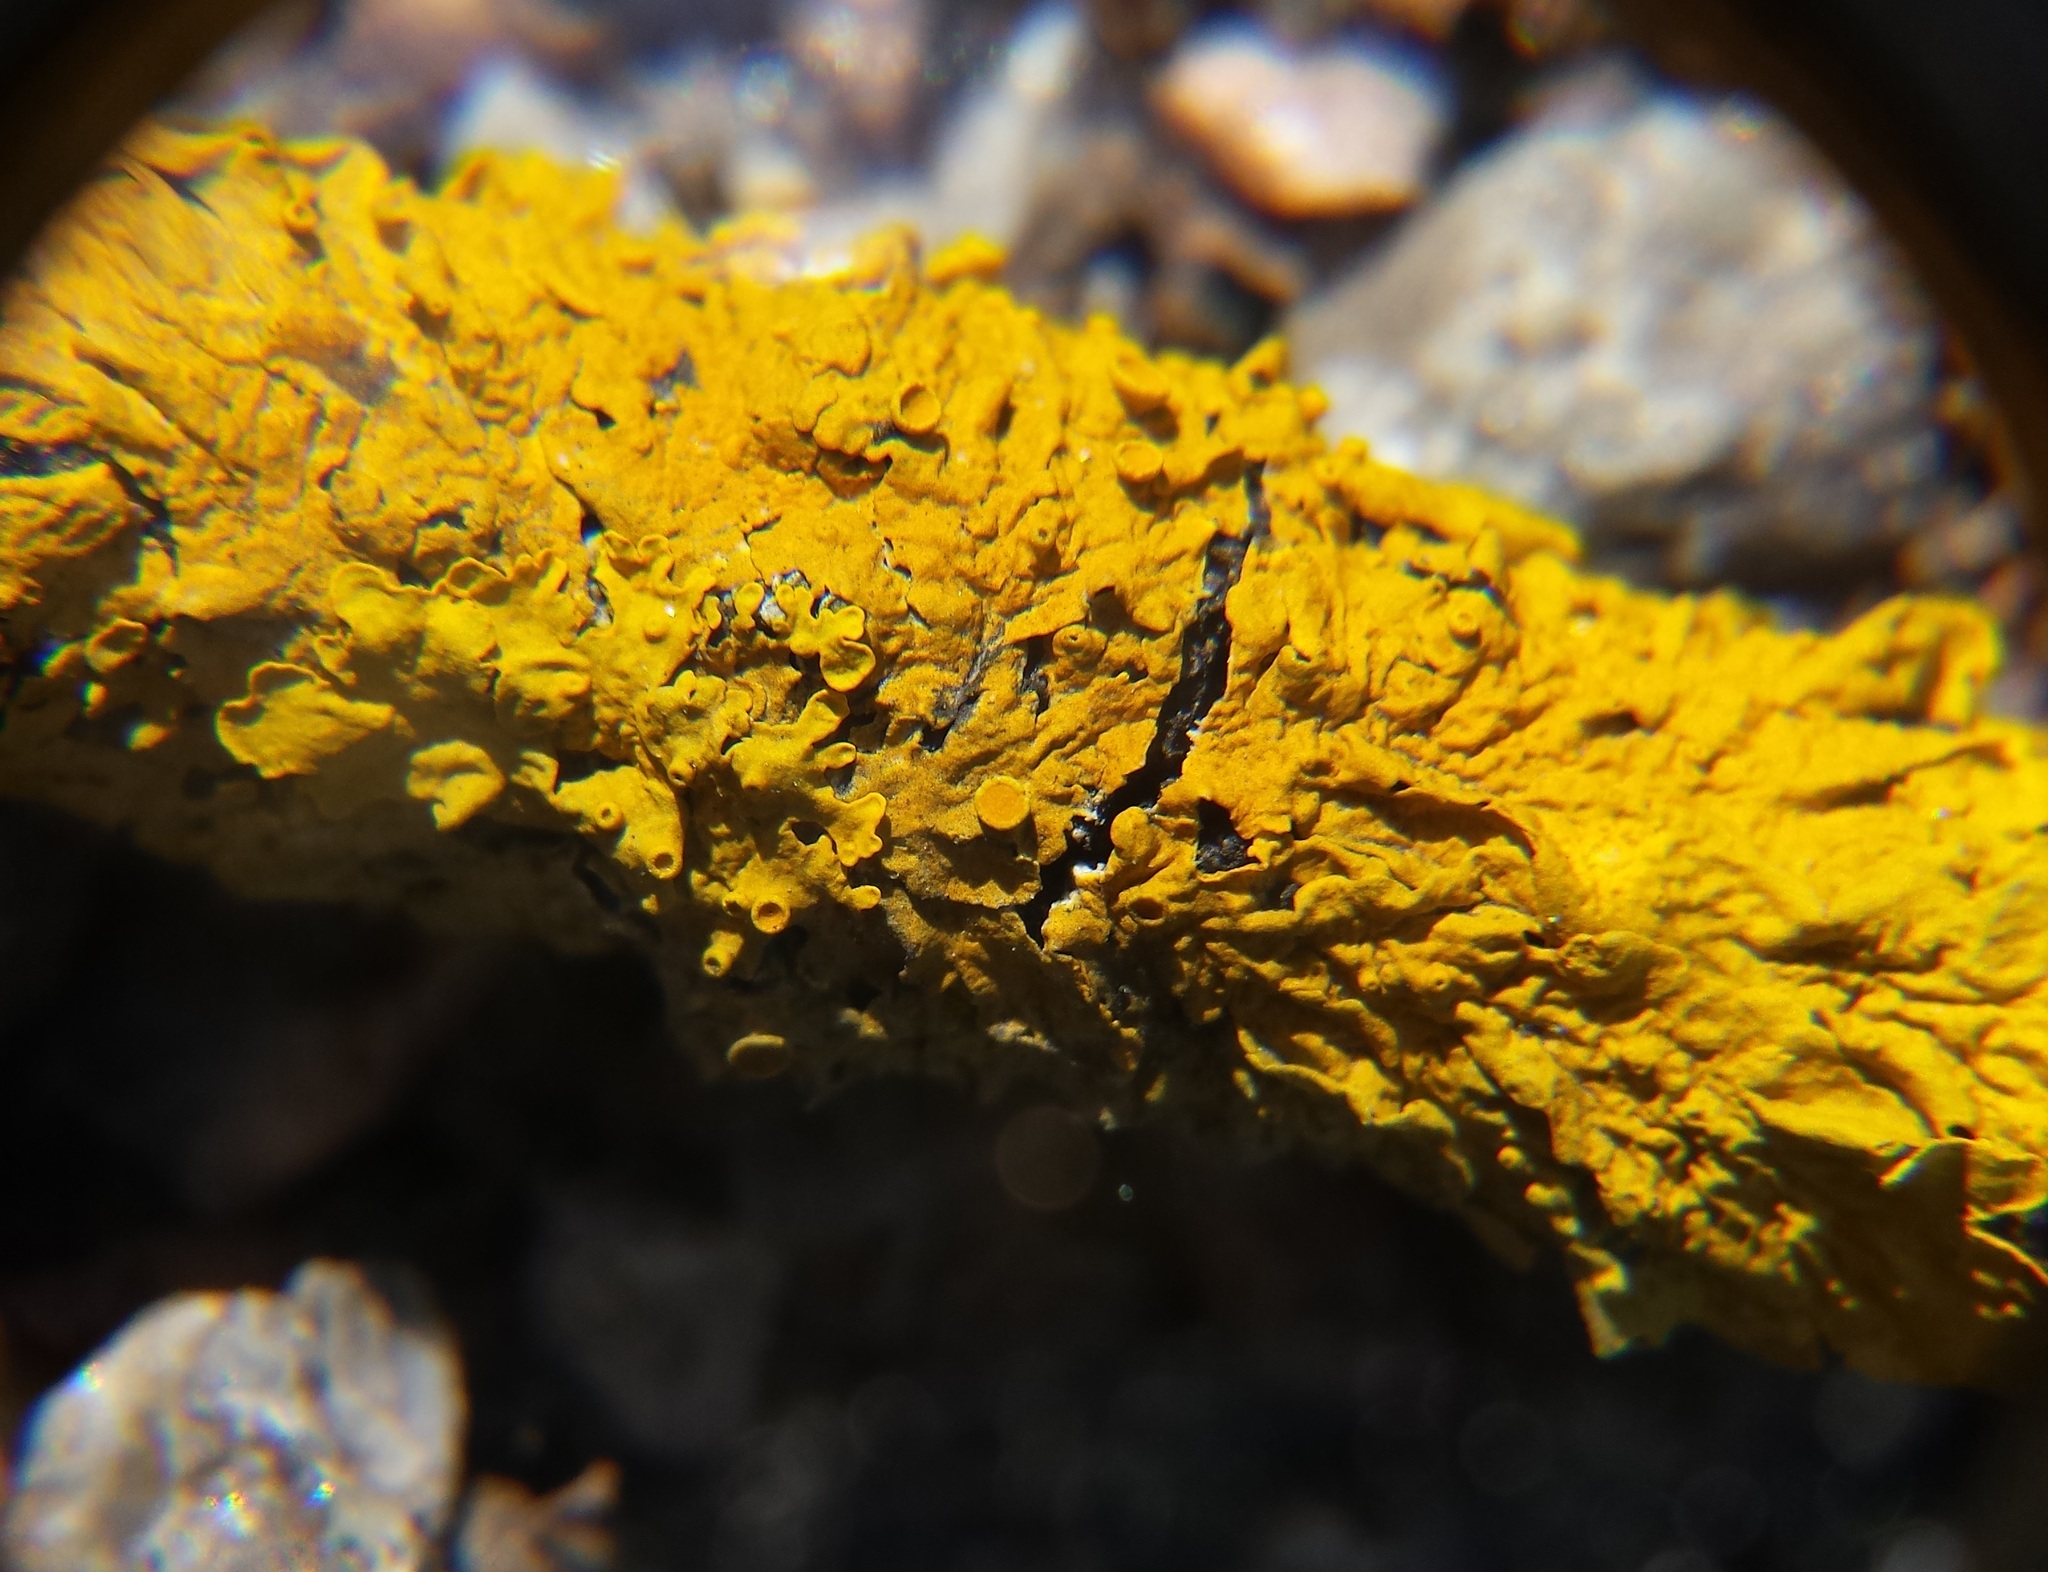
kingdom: Fungi
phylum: Ascomycota
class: Lecanoromycetes
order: Teloschistales
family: Teloschistaceae
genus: Xanthoria
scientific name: Xanthoria parietina
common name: Common orange lichen
